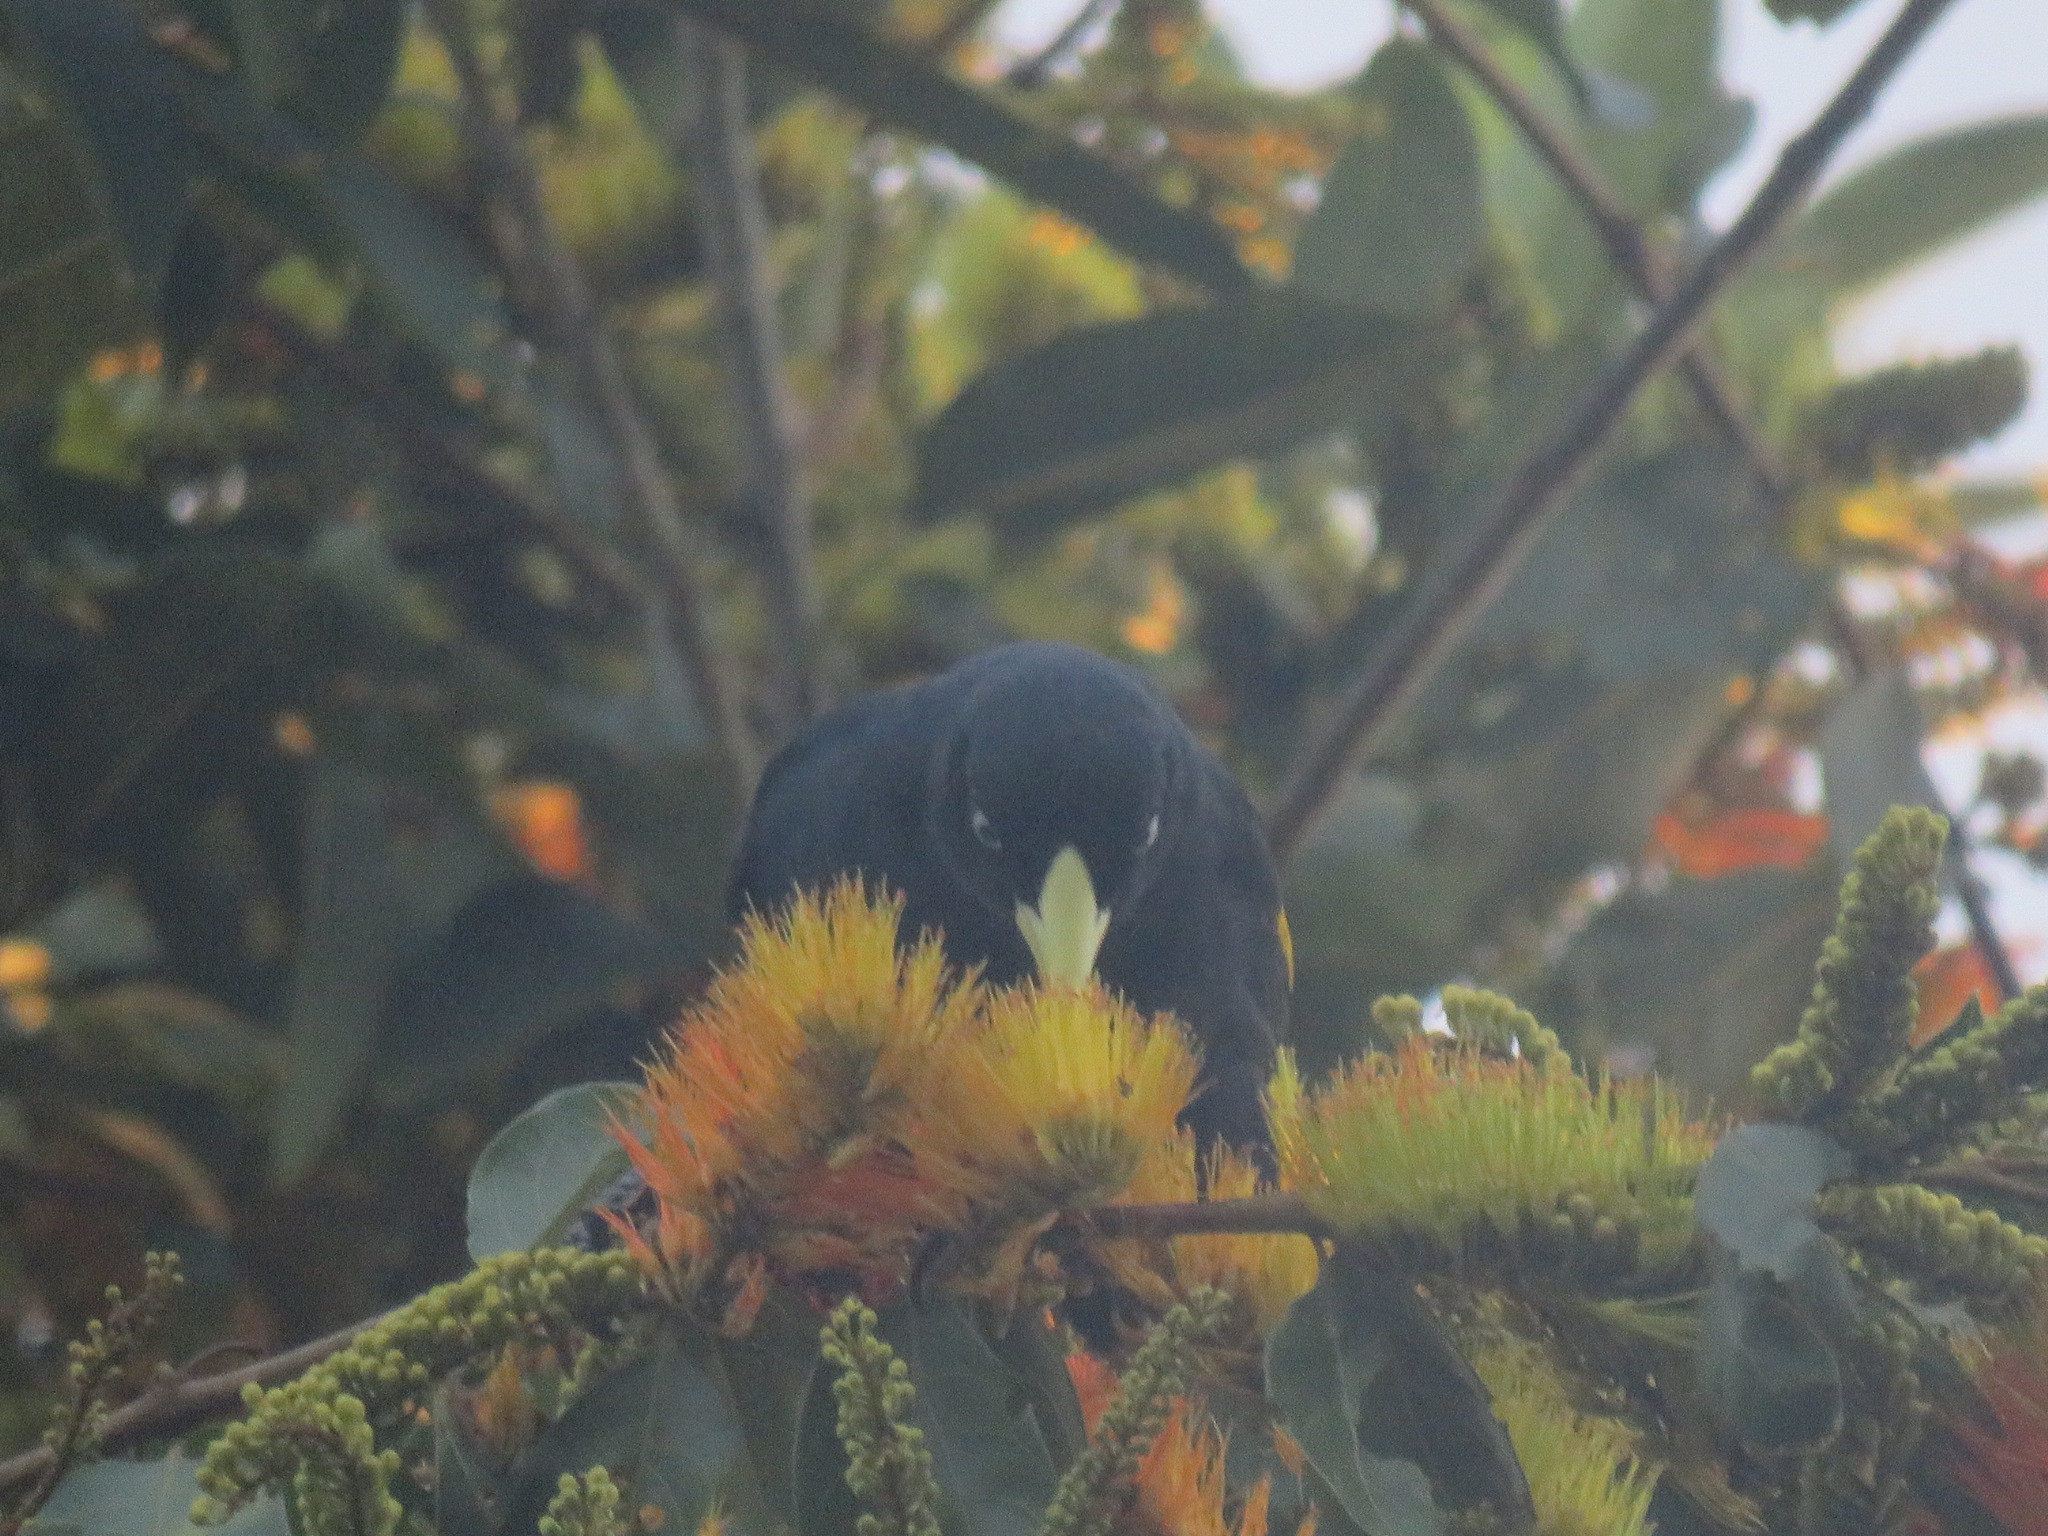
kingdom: Animalia
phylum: Chordata
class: Aves
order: Passeriformes
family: Icteridae
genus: Cacicus
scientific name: Cacicus cela
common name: Yellow-rumped cacique
